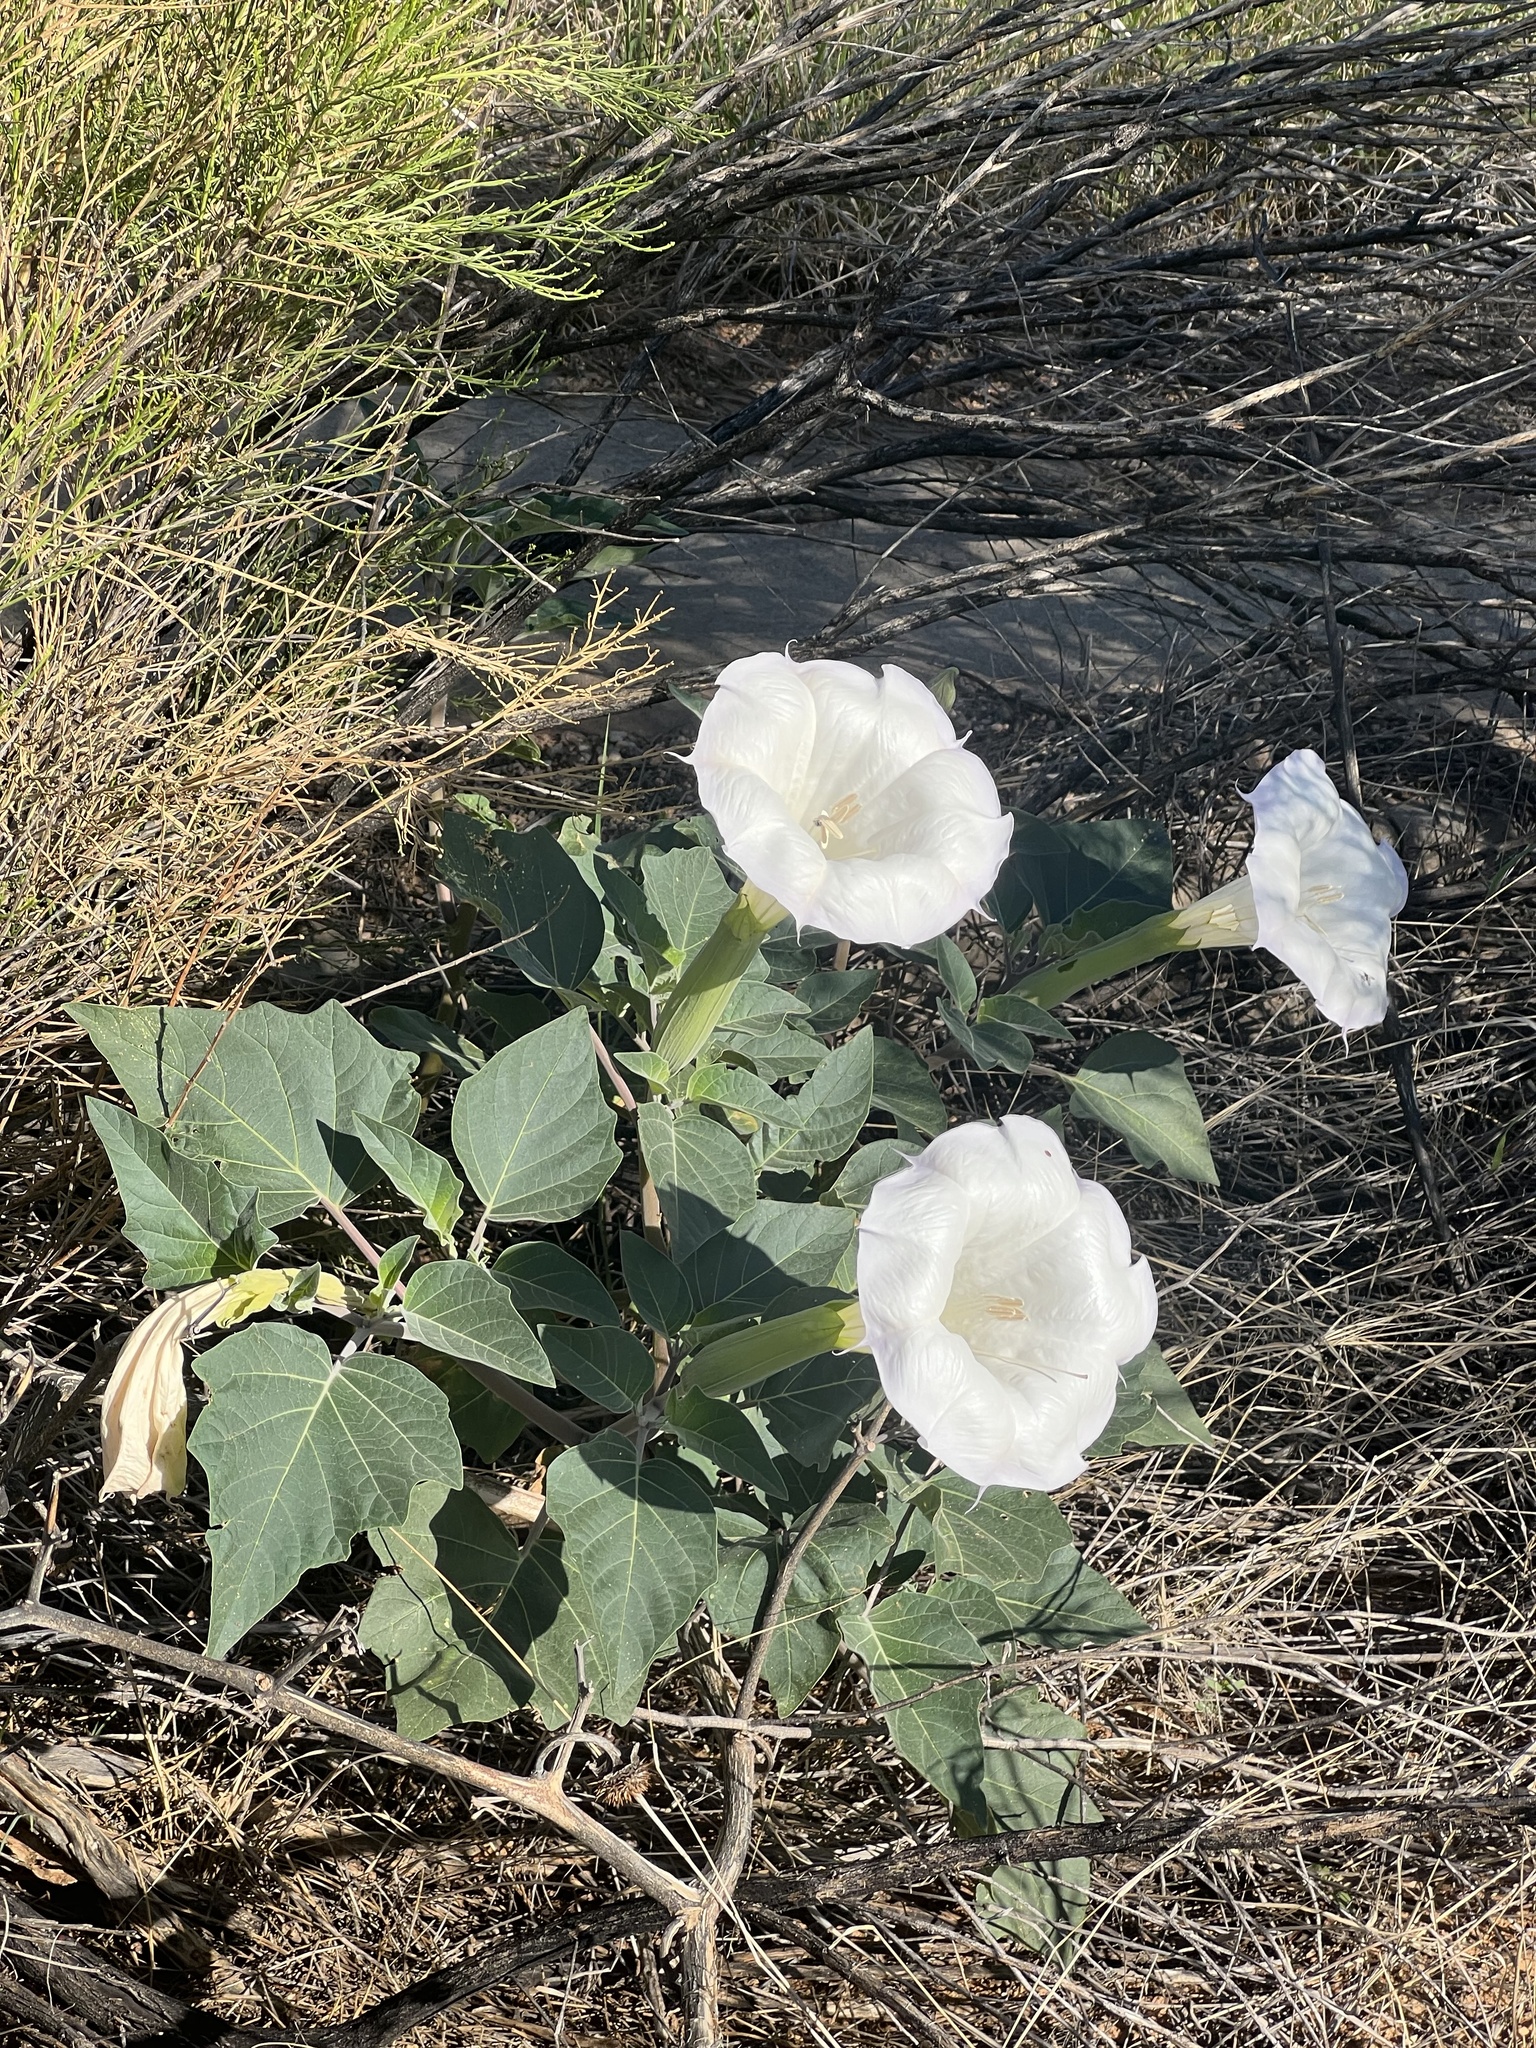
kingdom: Plantae
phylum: Tracheophyta
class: Magnoliopsida
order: Solanales
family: Solanaceae
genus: Datura
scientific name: Datura wrightii
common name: Sacred thorn-apple
